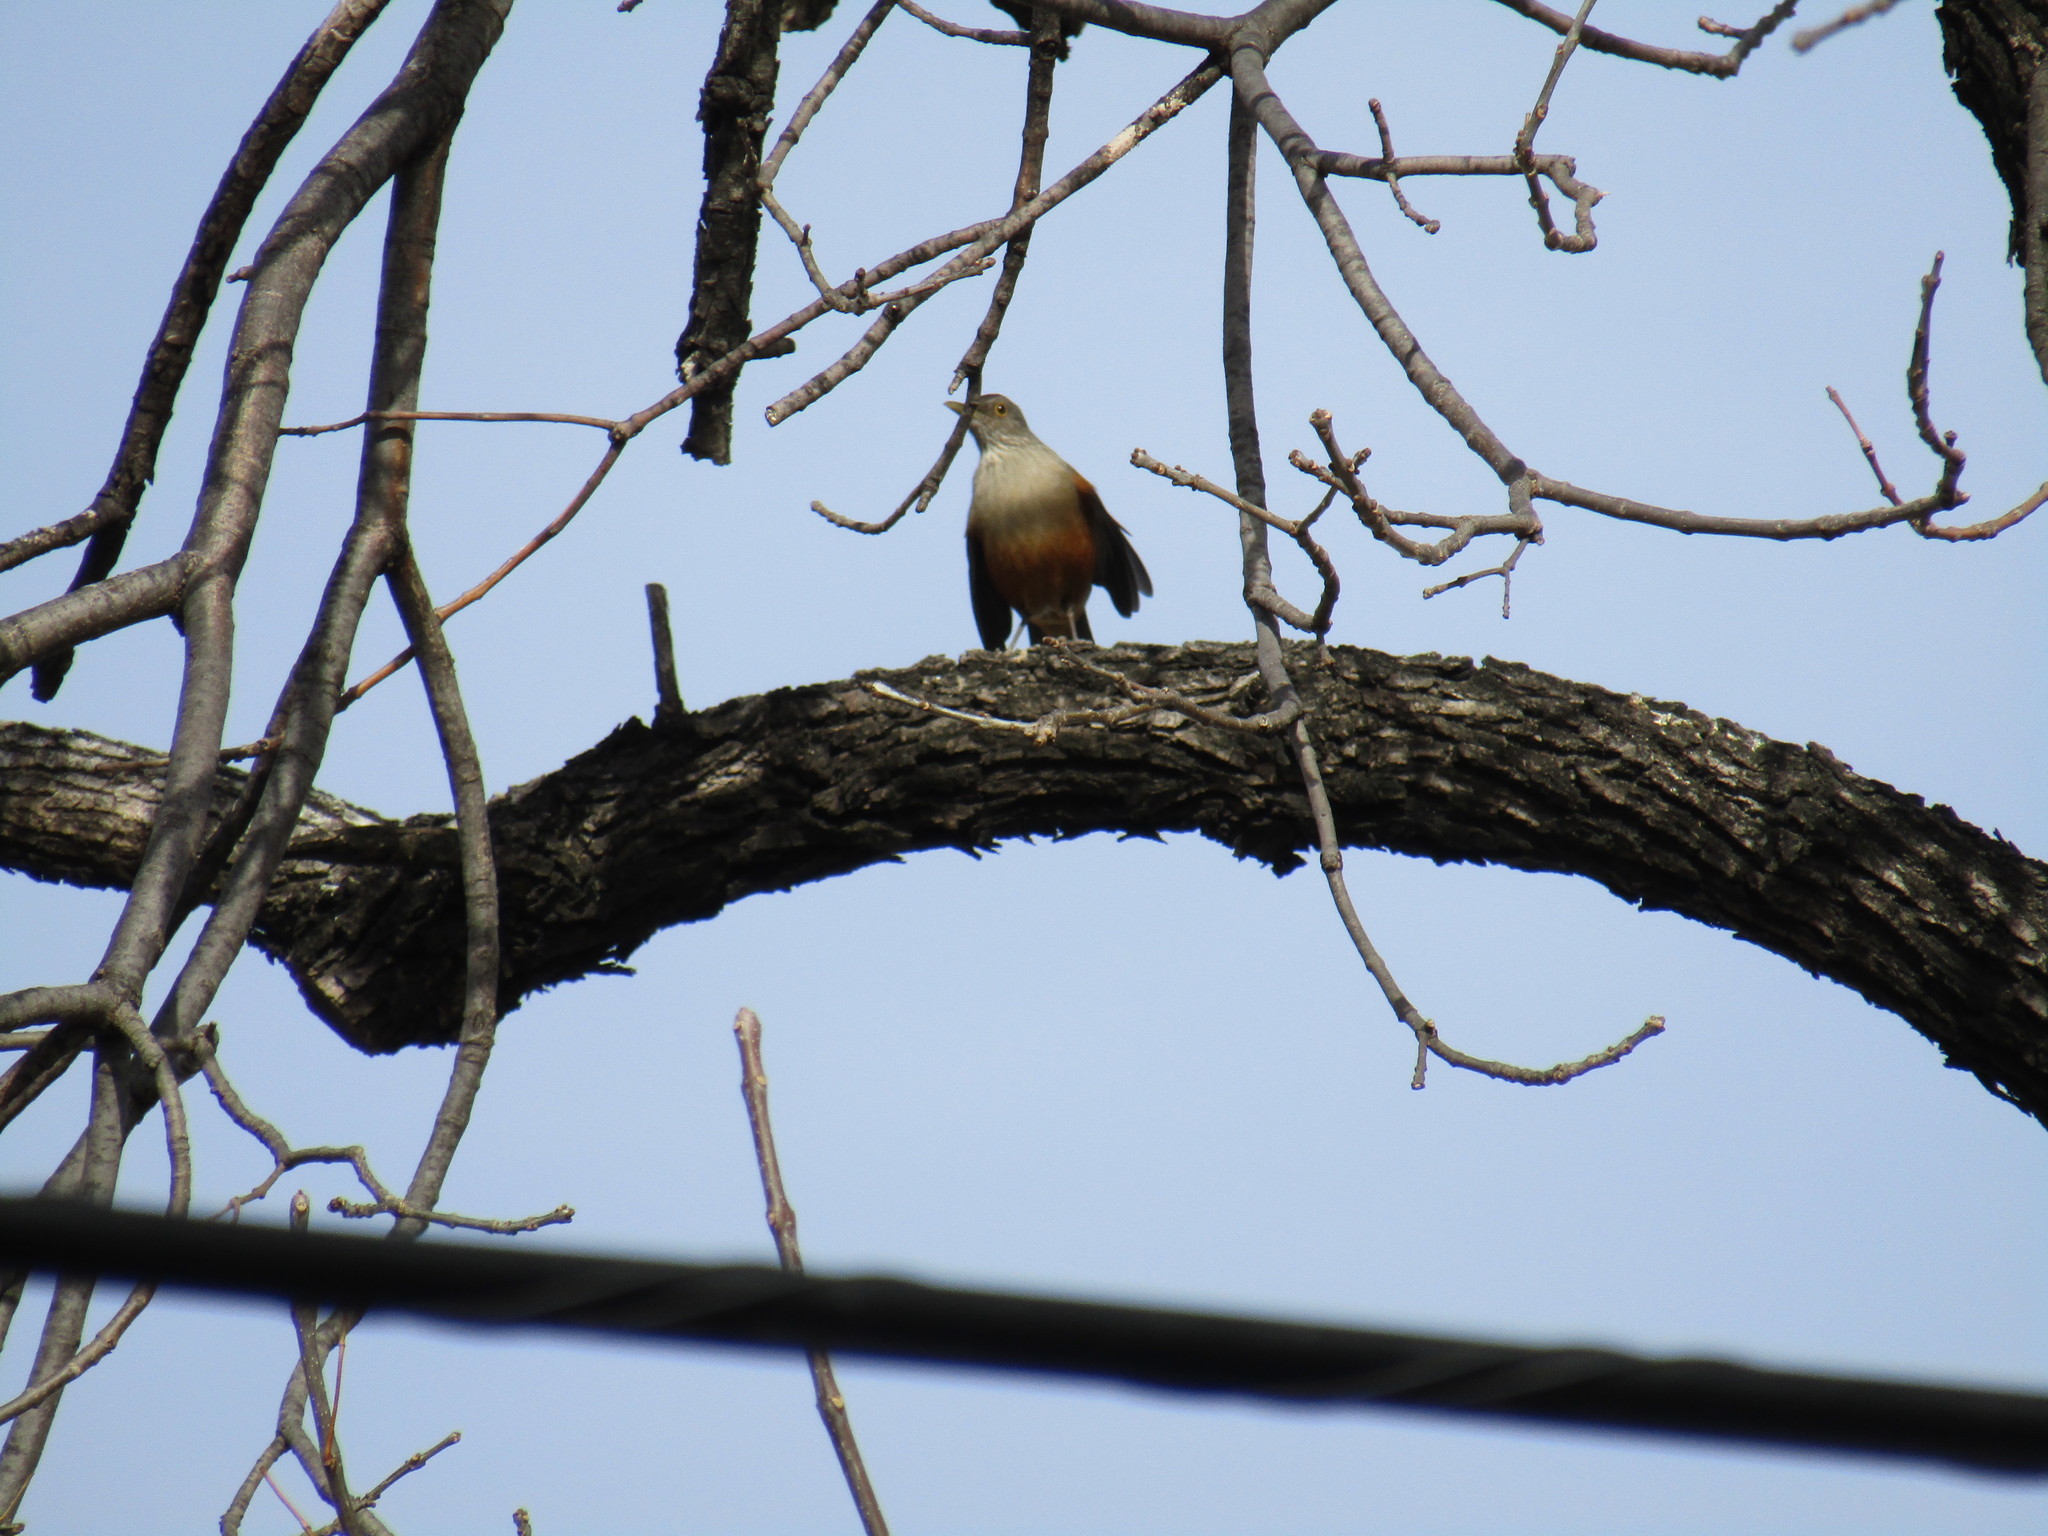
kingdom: Animalia
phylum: Chordata
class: Aves
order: Passeriformes
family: Turdidae
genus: Turdus
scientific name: Turdus rufiventris
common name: Rufous-bellied thrush
